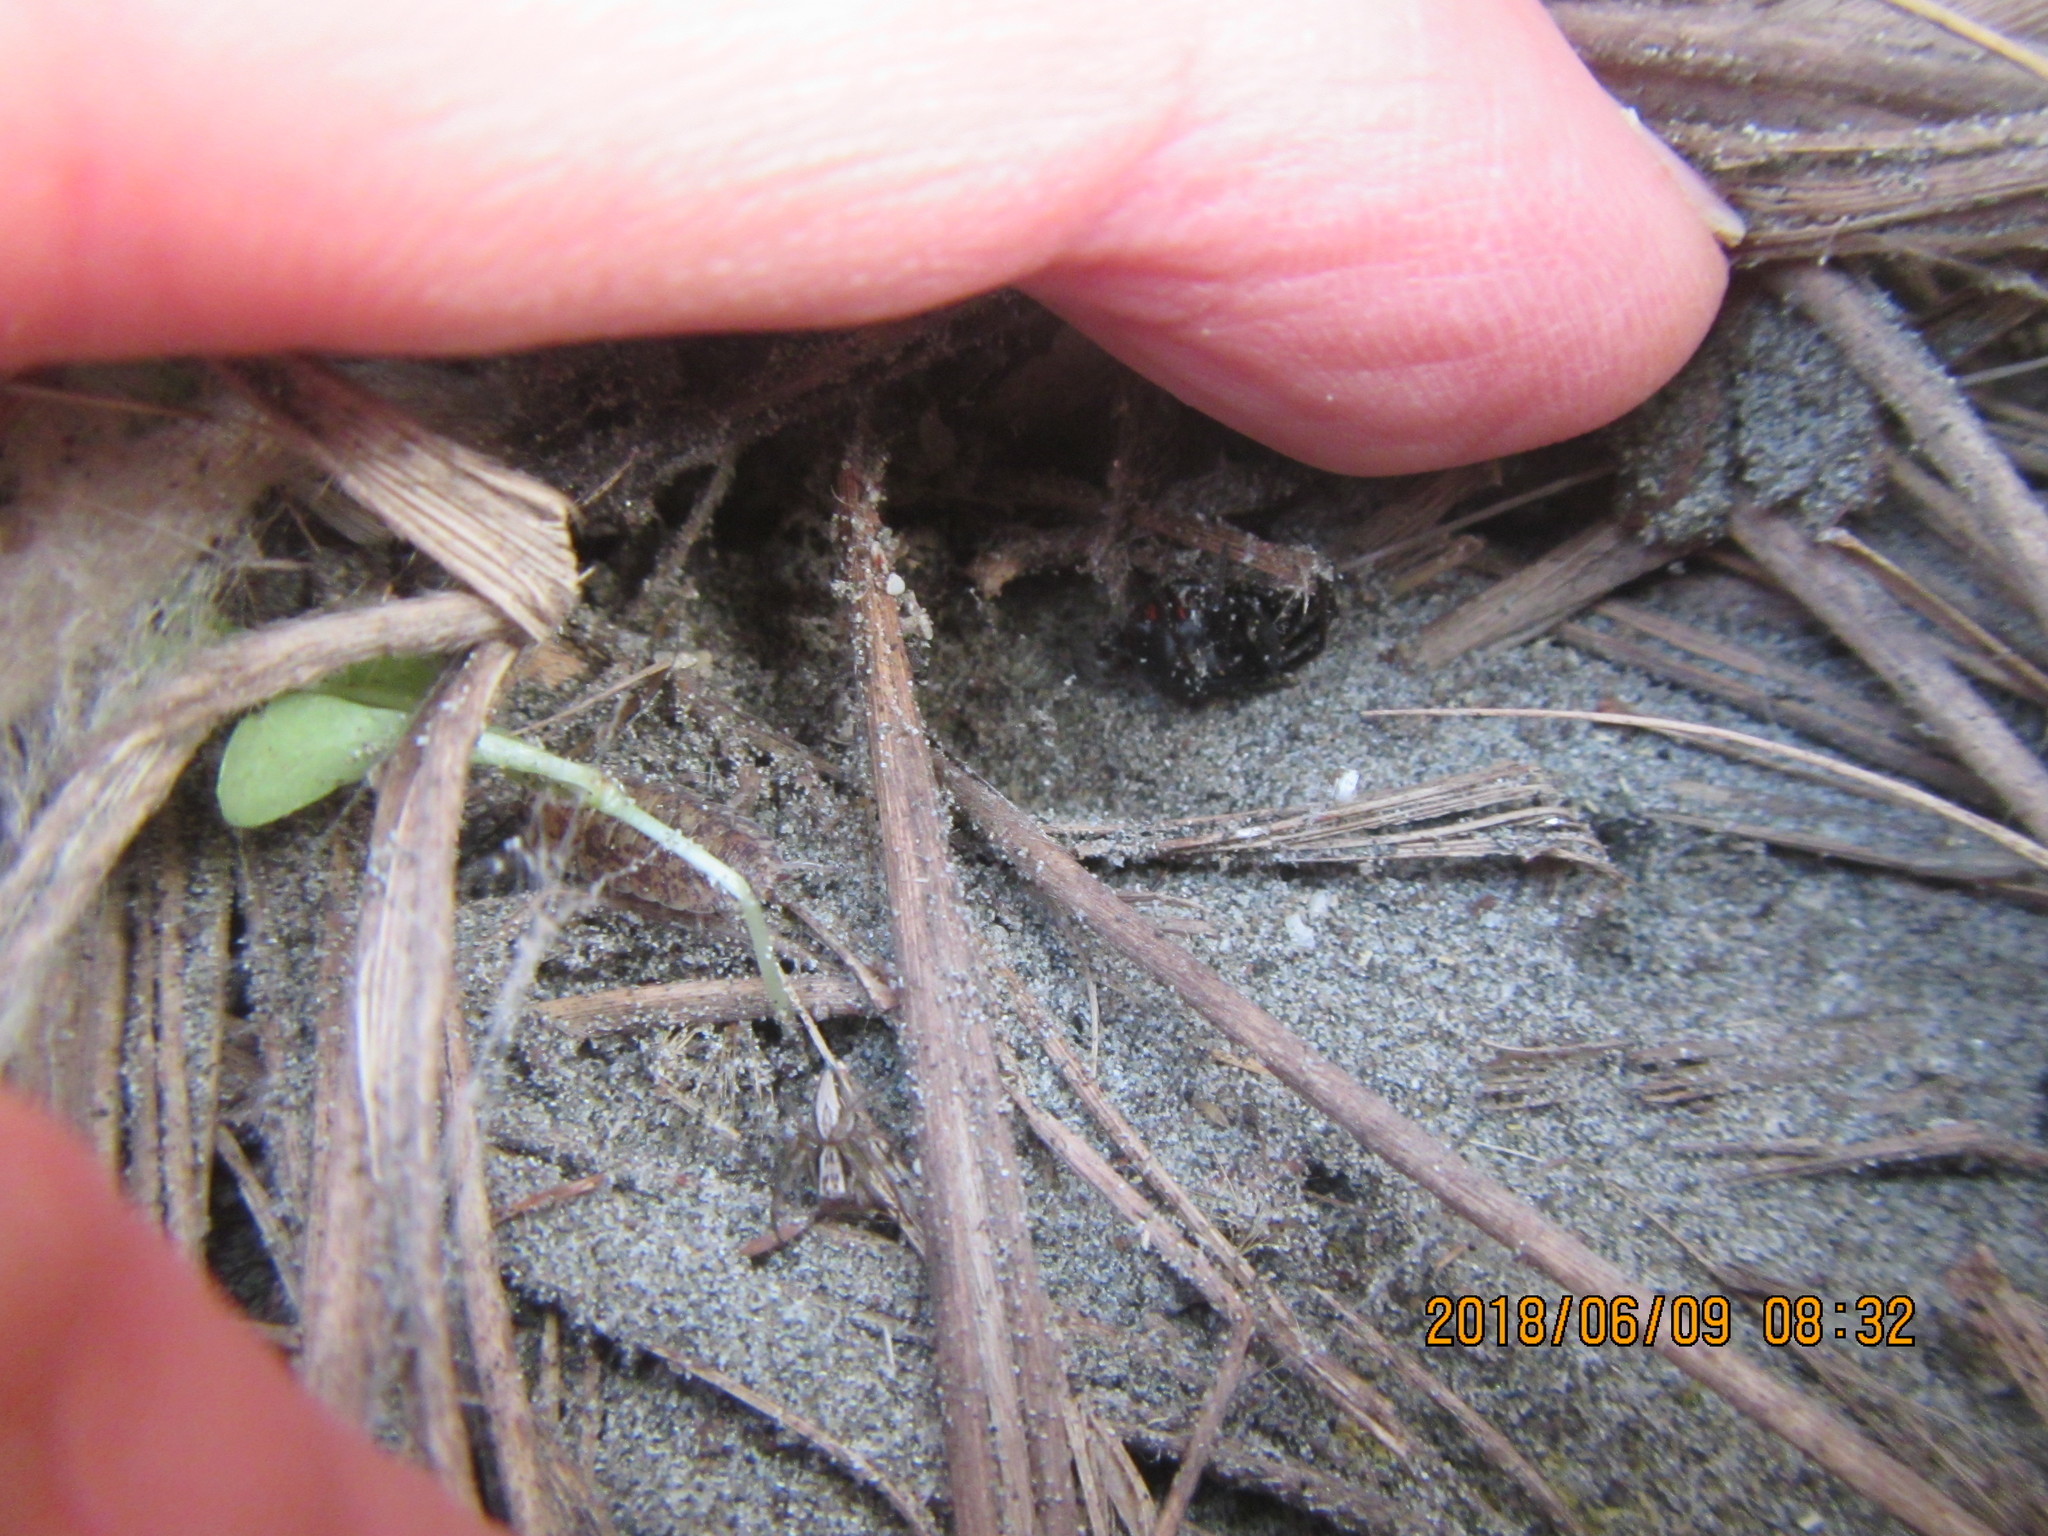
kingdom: Animalia
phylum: Arthropoda
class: Arachnida
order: Araneae
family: Theridiidae
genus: Latrodectus
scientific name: Latrodectus katipo
